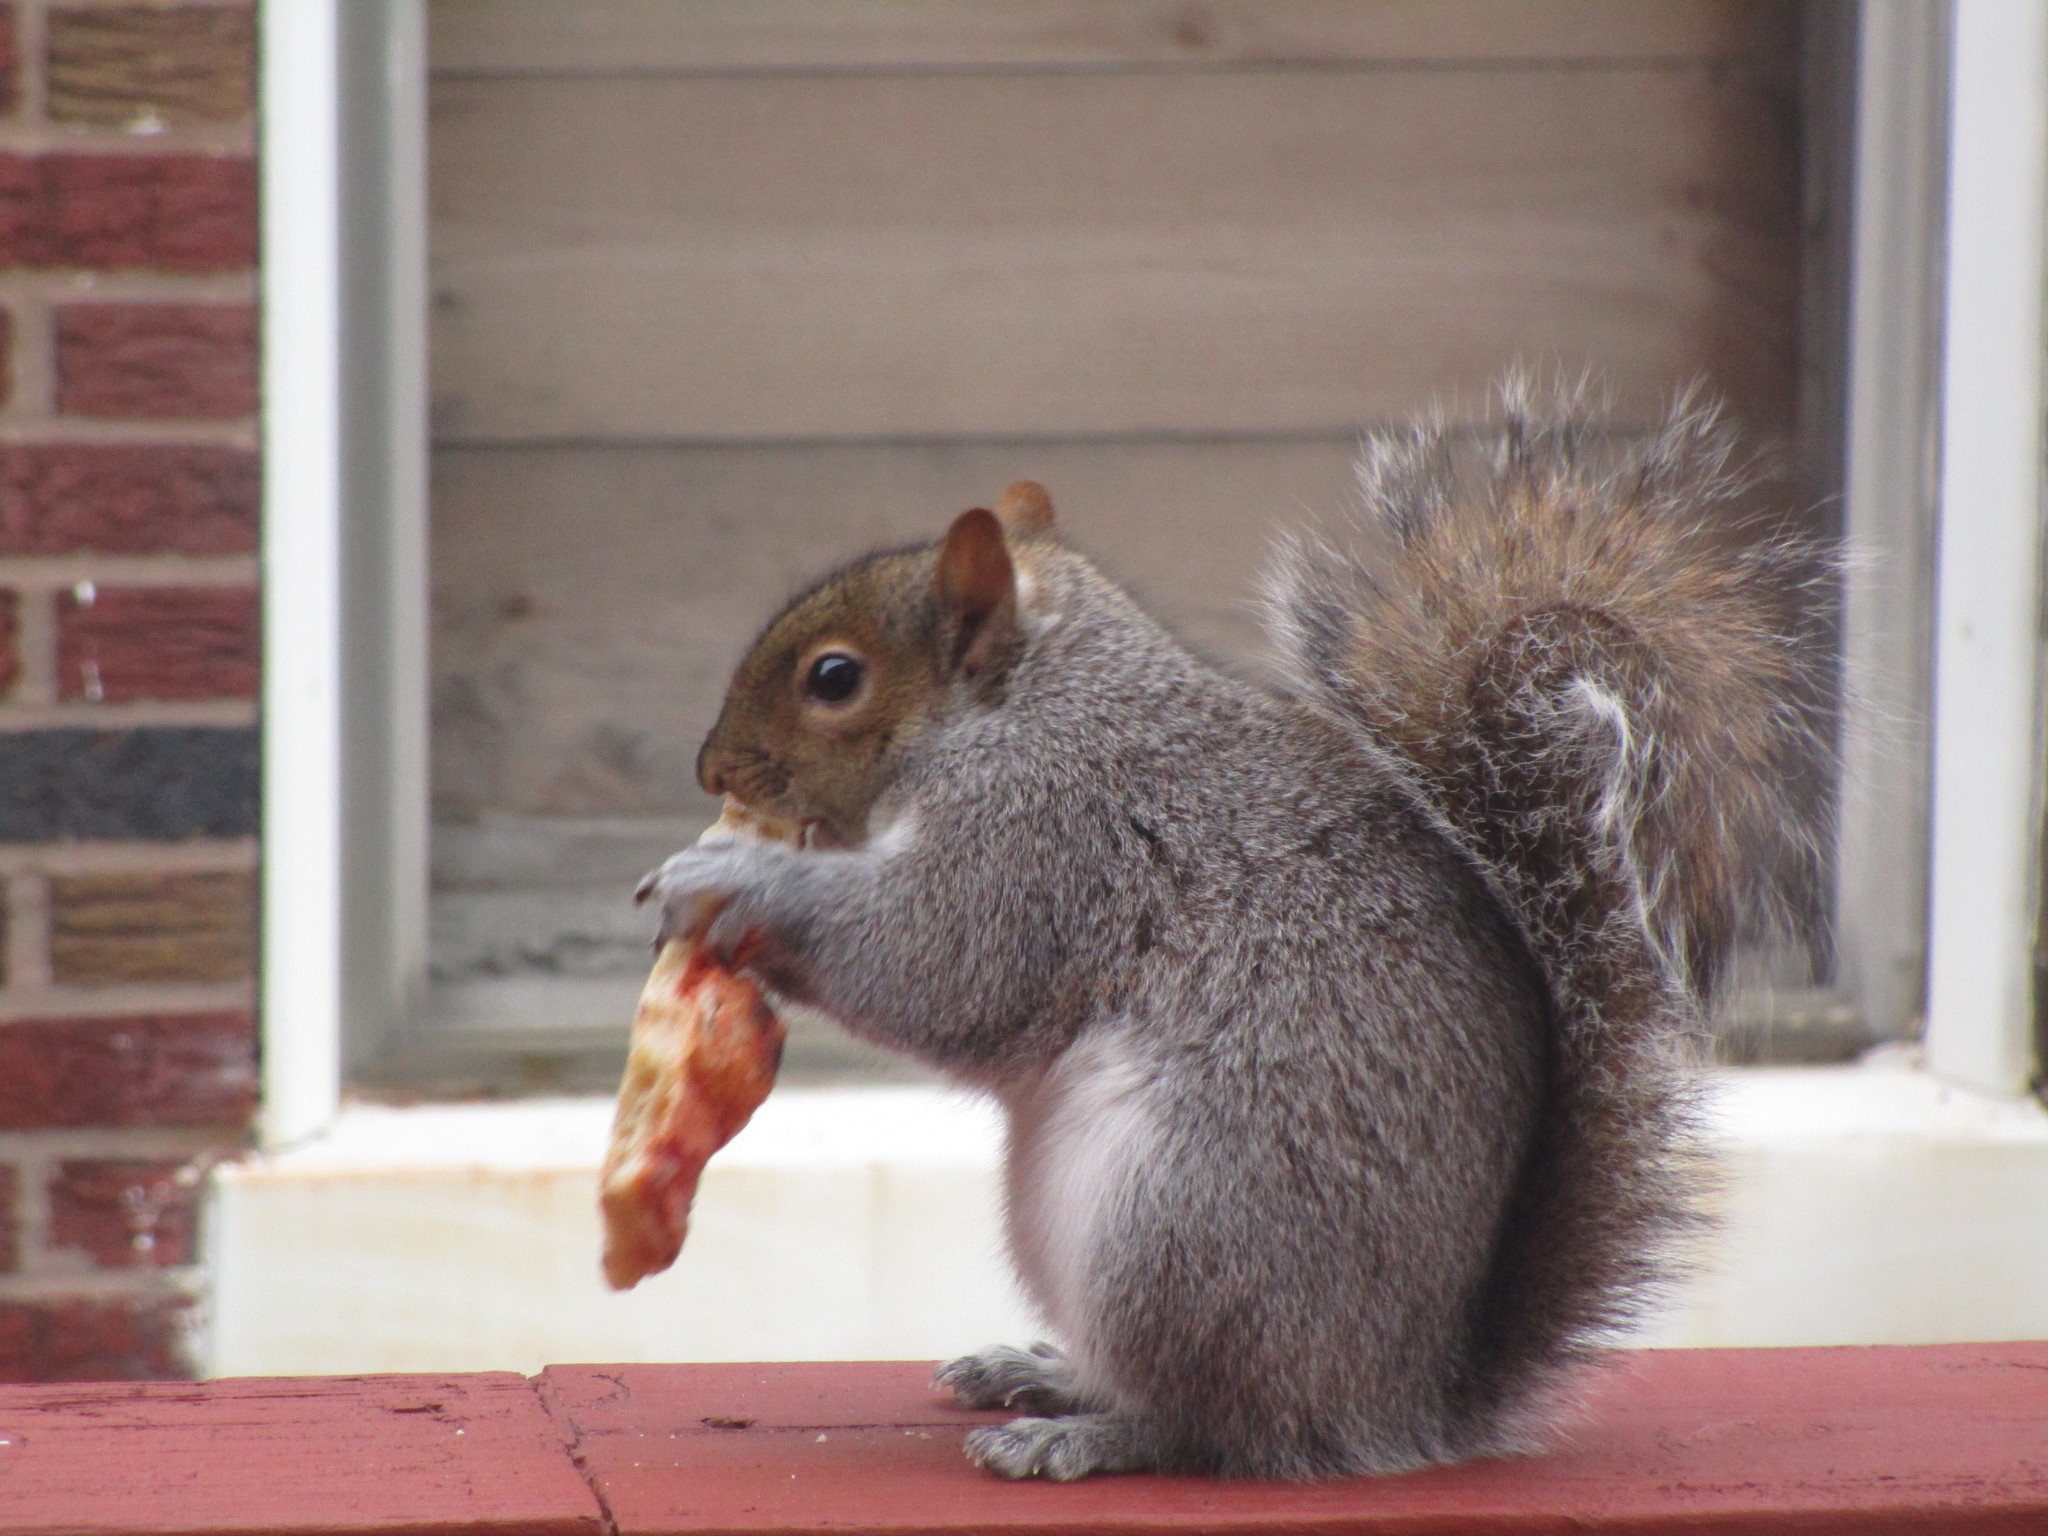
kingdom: Animalia
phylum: Chordata
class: Mammalia
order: Rodentia
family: Sciuridae
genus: Sciurus
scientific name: Sciurus carolinensis
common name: Eastern gray squirrel
